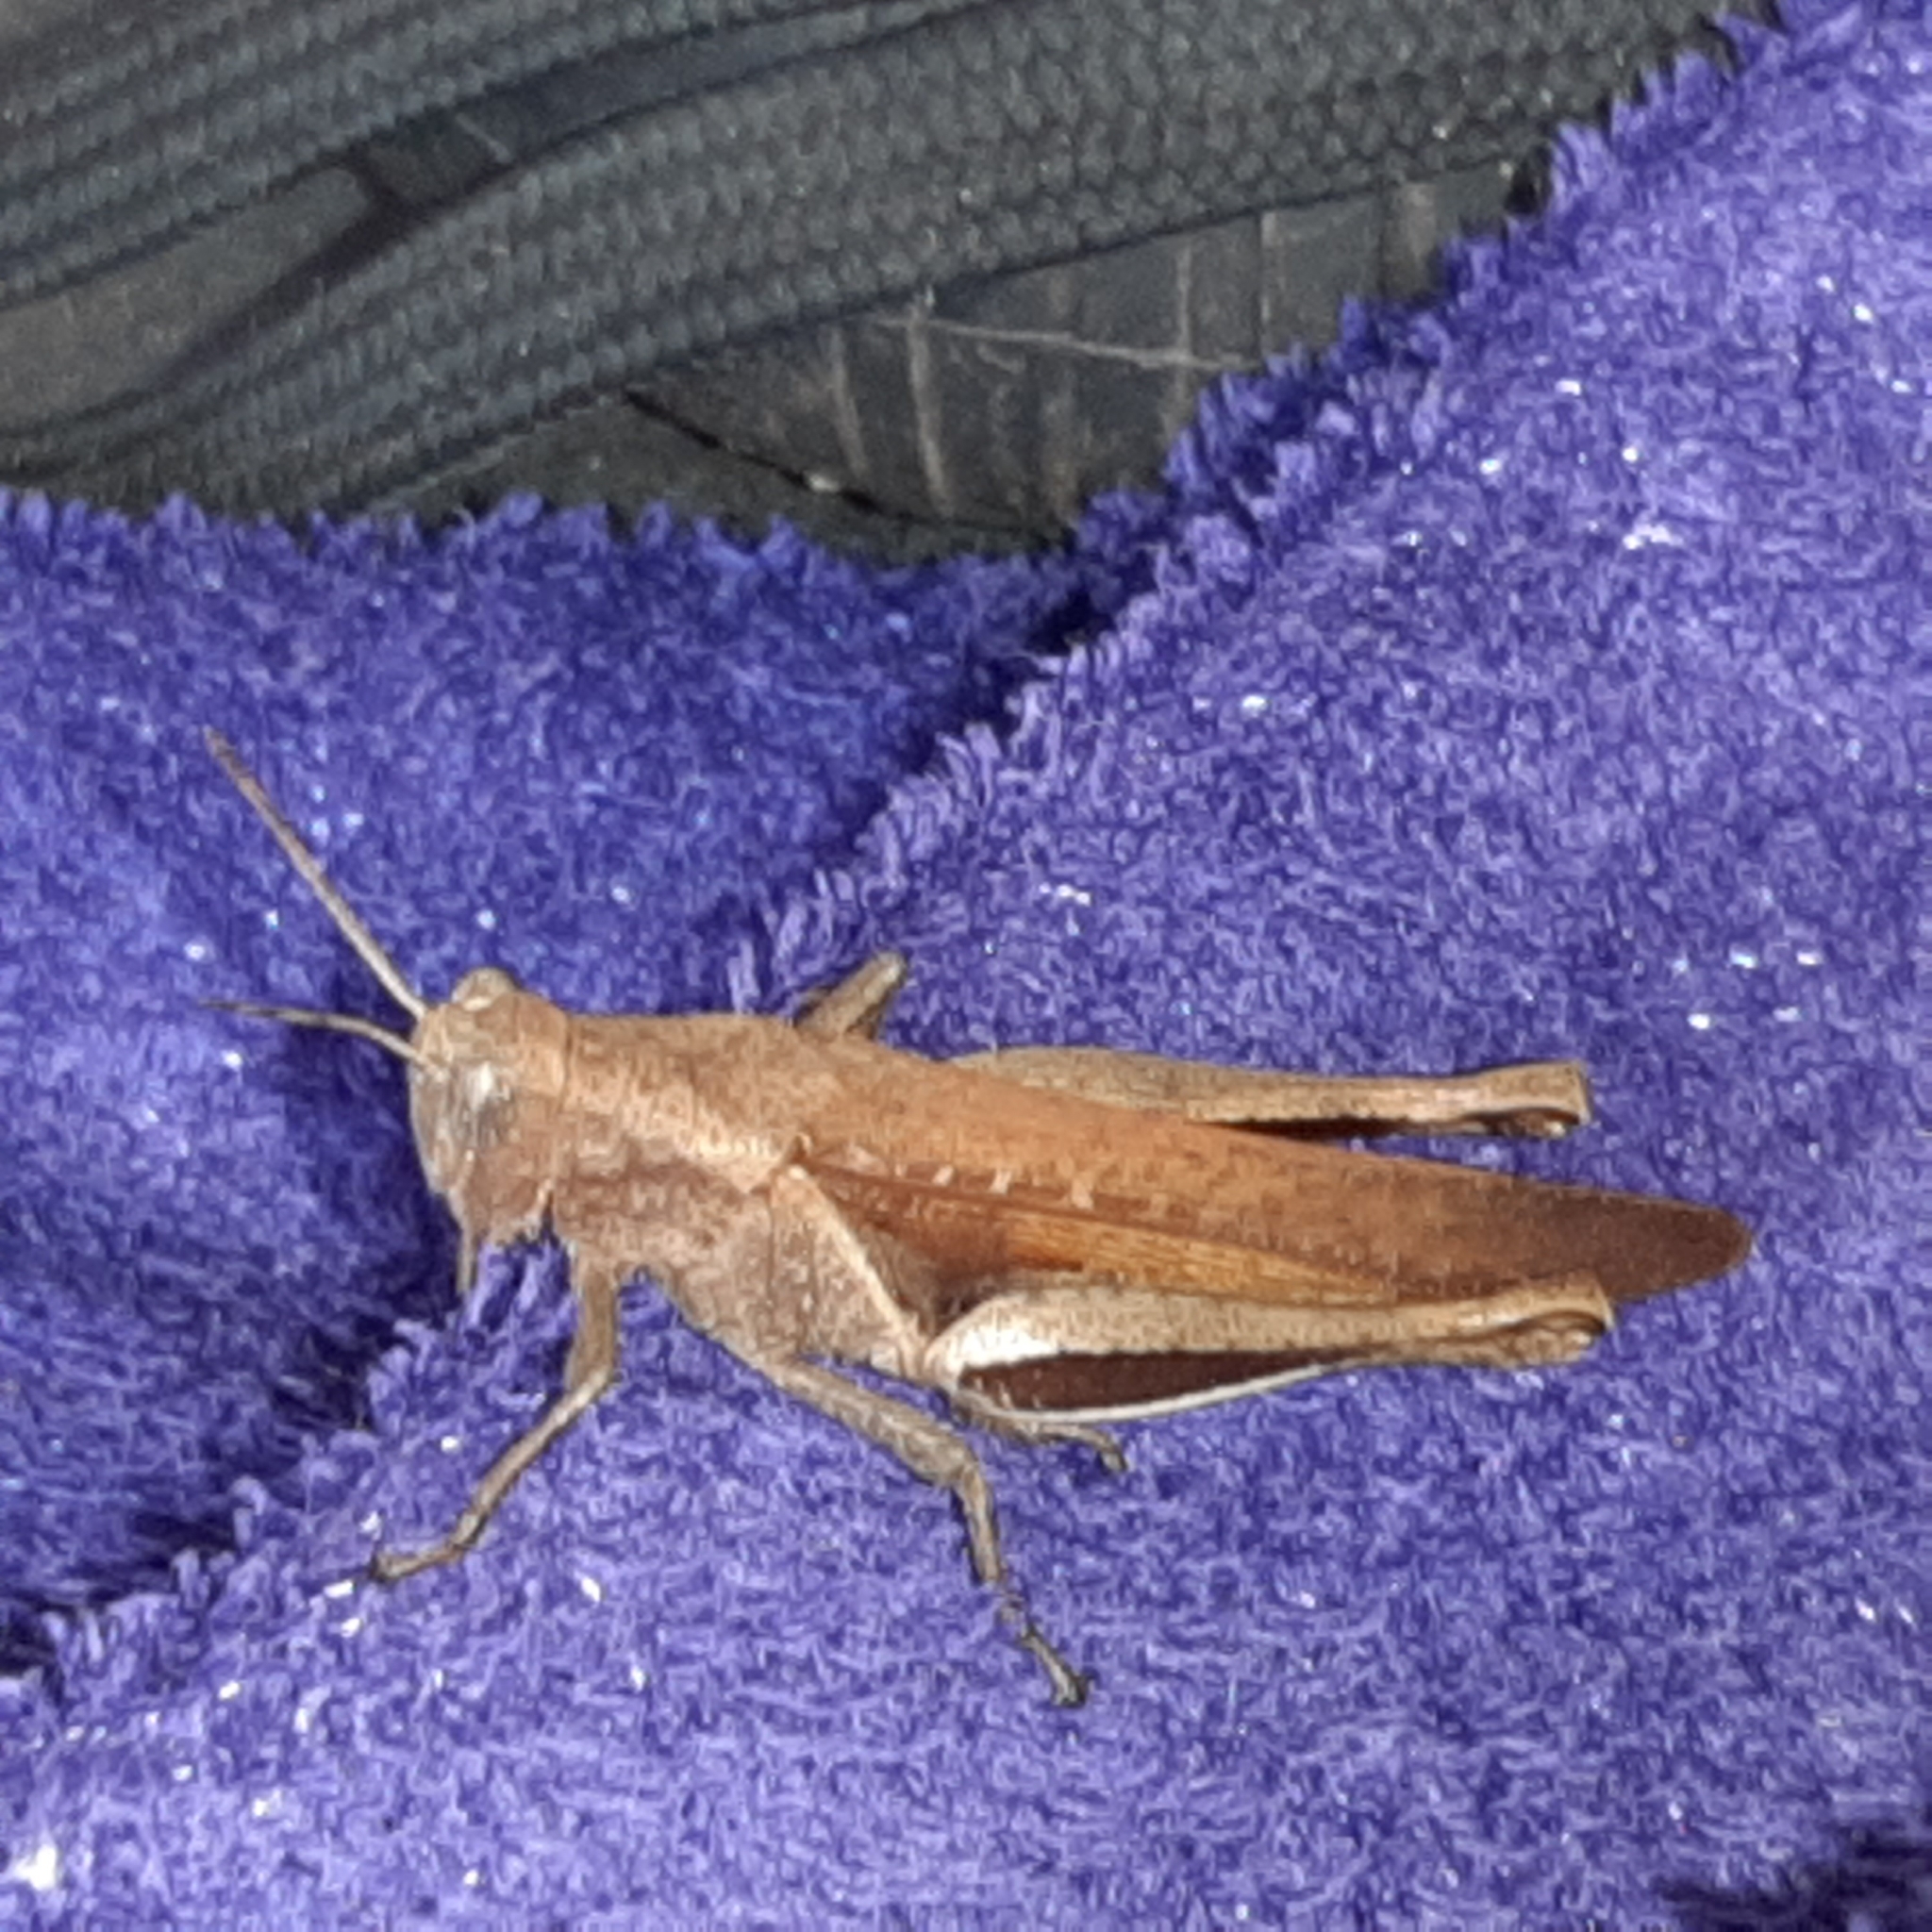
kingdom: Animalia
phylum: Arthropoda
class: Insecta
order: Orthoptera
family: Acrididae
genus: Abracris
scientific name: Abracris flavolineata
